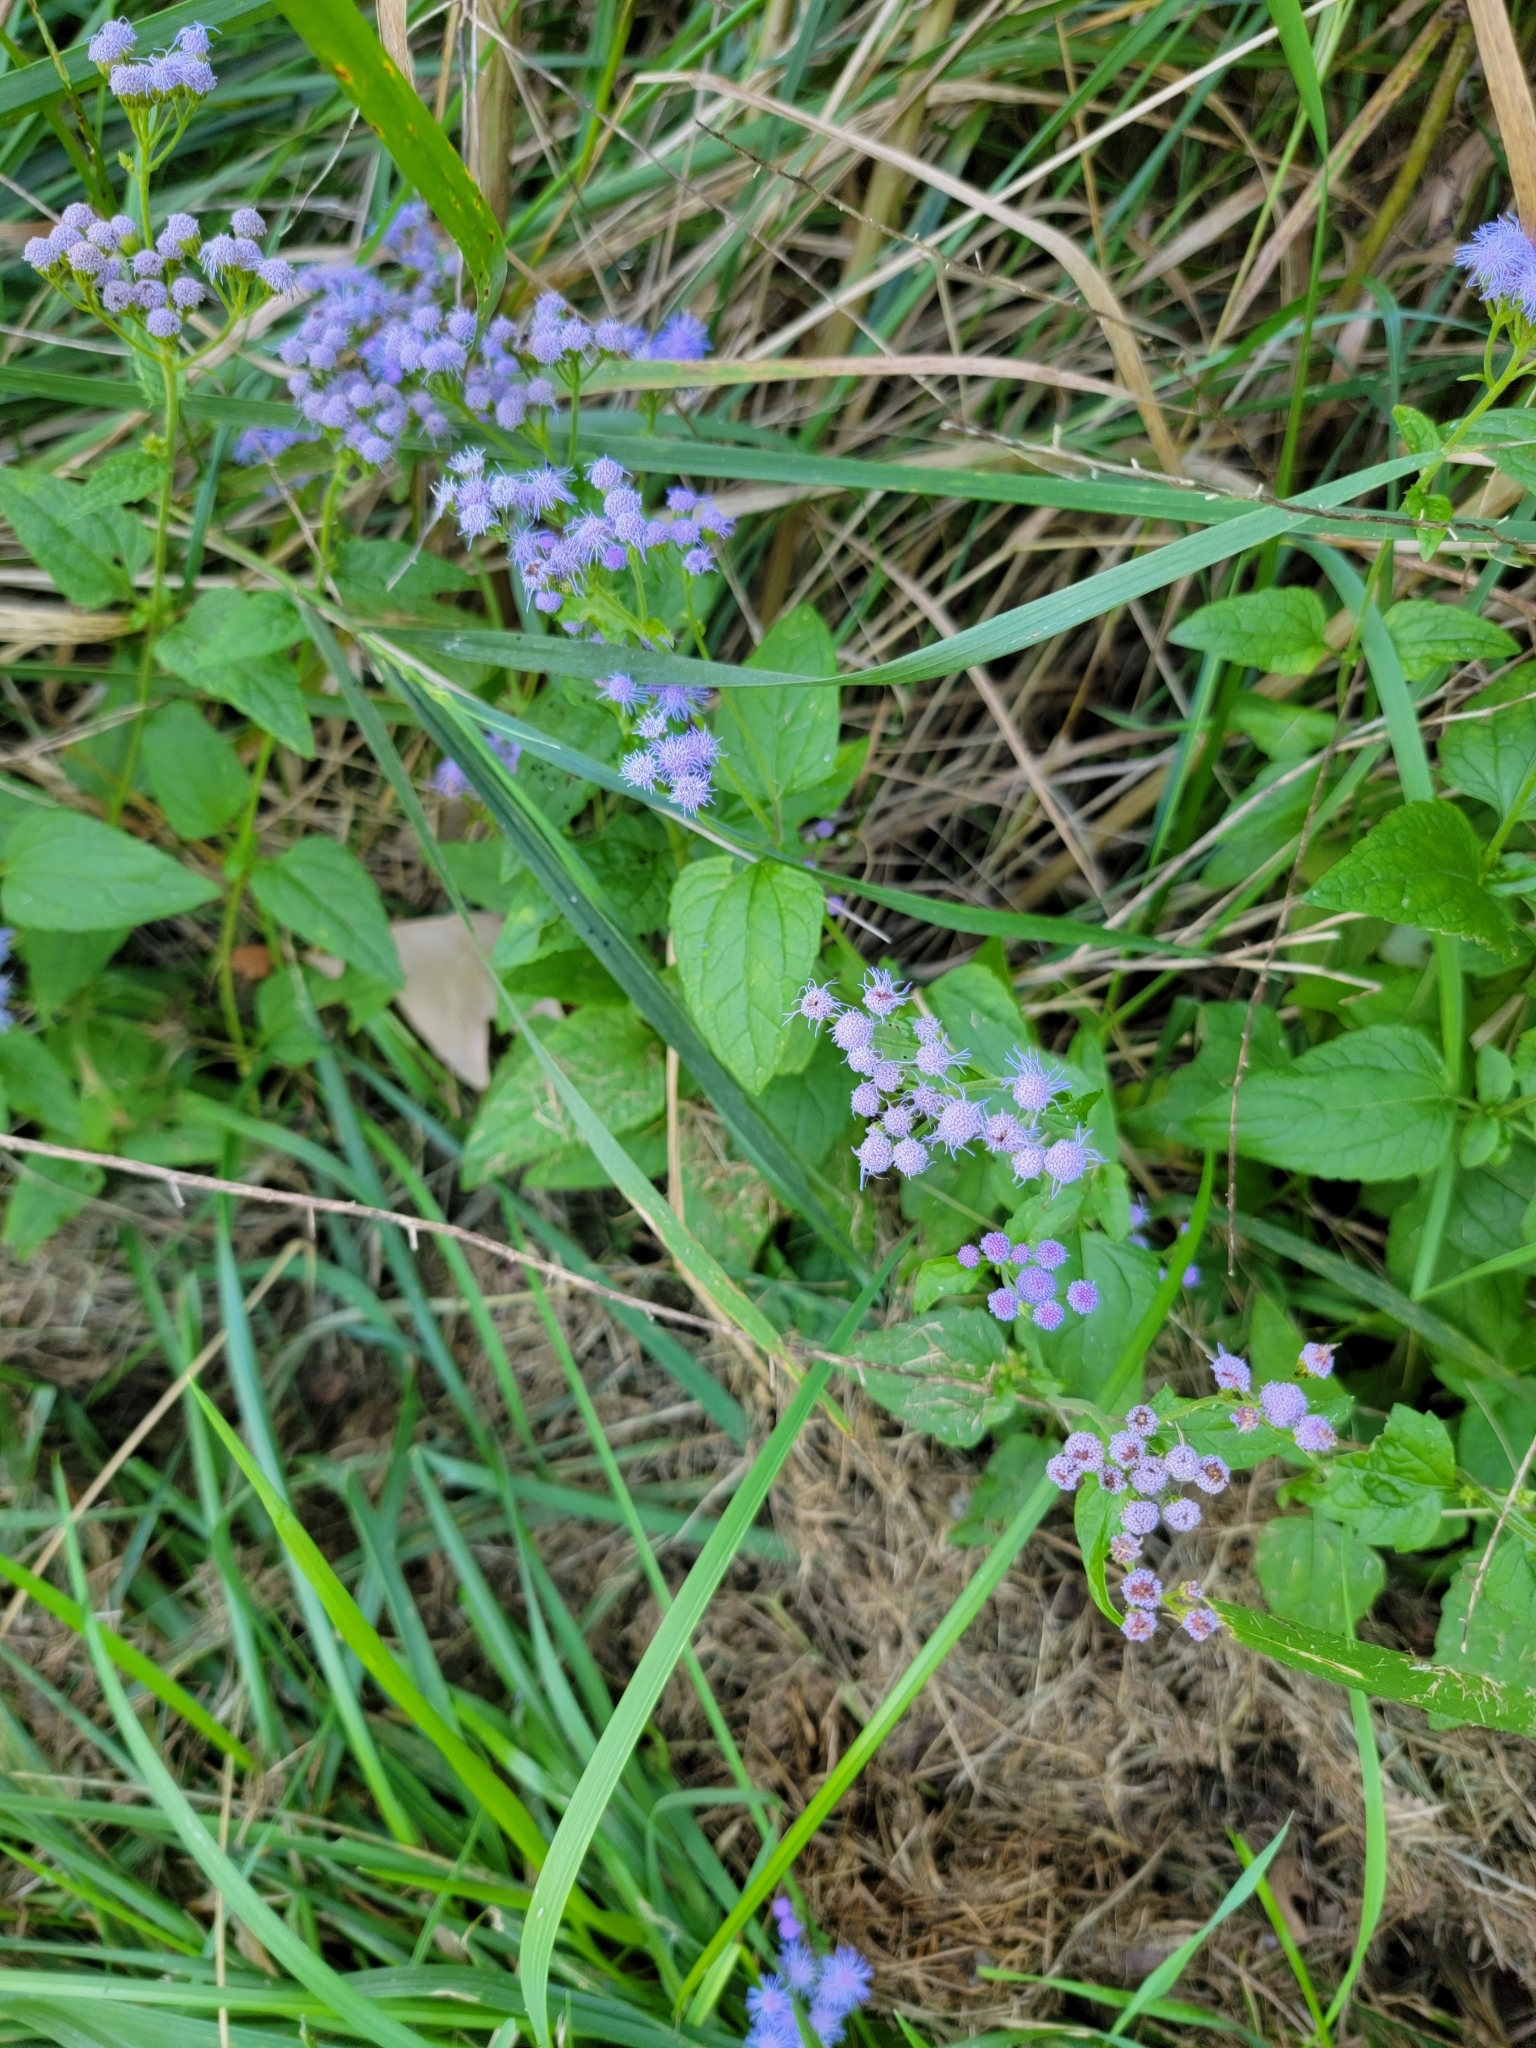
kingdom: Plantae
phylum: Tracheophyta
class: Magnoliopsida
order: Asterales
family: Asteraceae
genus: Conoclinium
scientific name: Conoclinium coelestinum
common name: Blue mistflower
